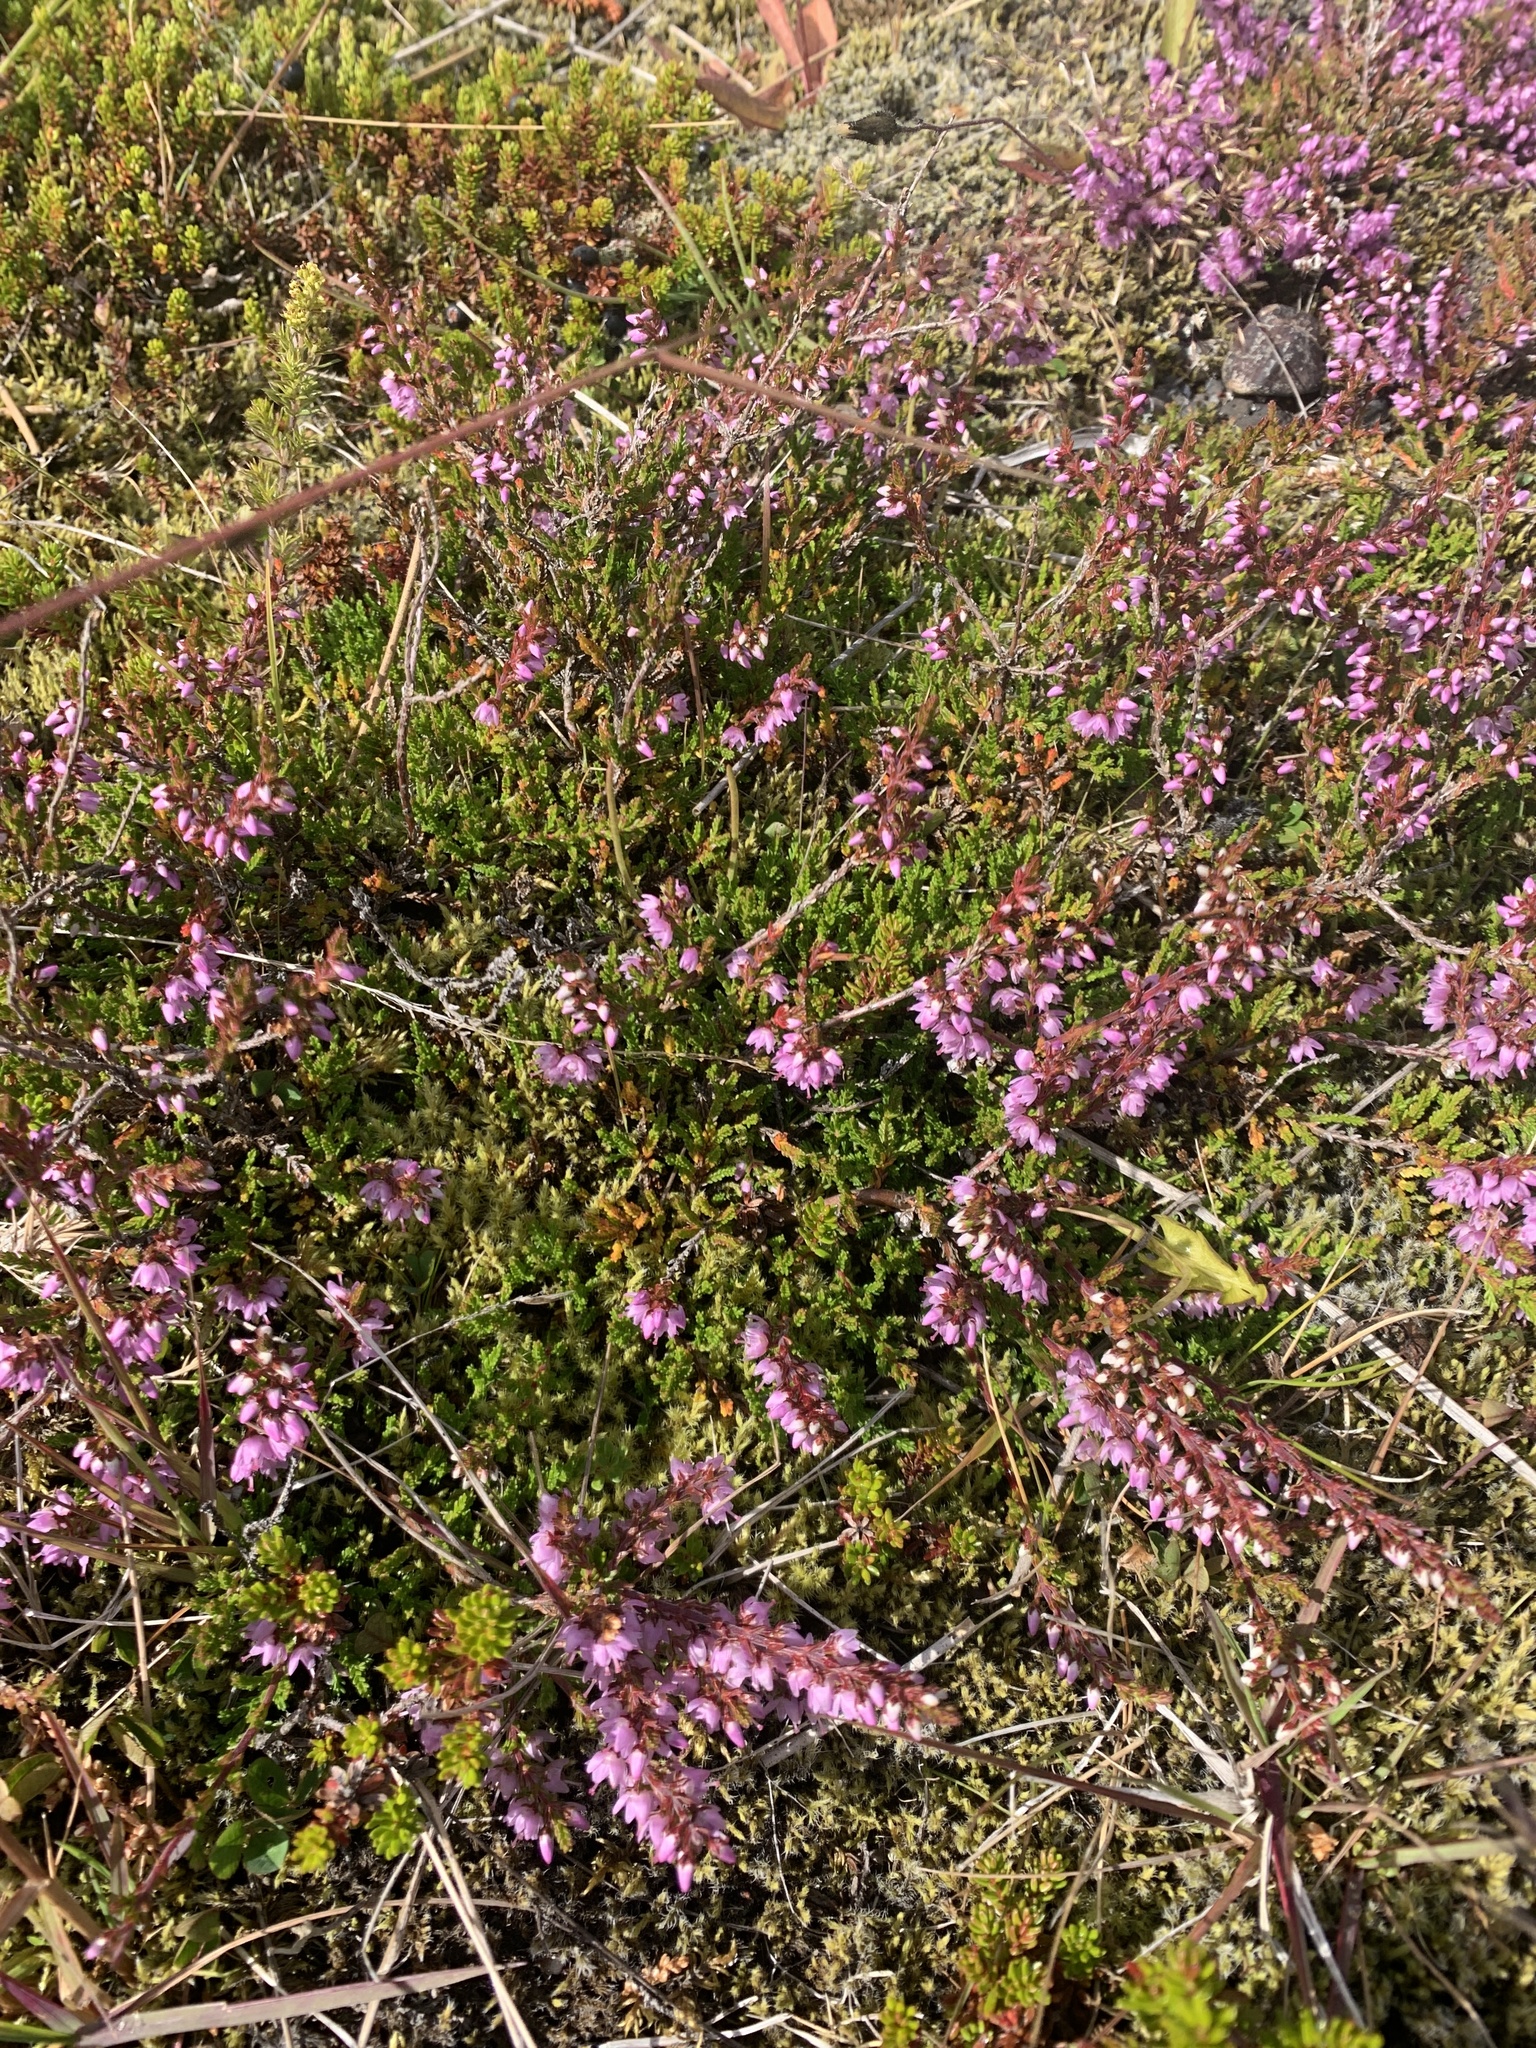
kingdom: Plantae
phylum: Tracheophyta
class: Magnoliopsida
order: Ericales
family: Ericaceae
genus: Calluna
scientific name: Calluna vulgaris
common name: Heather
